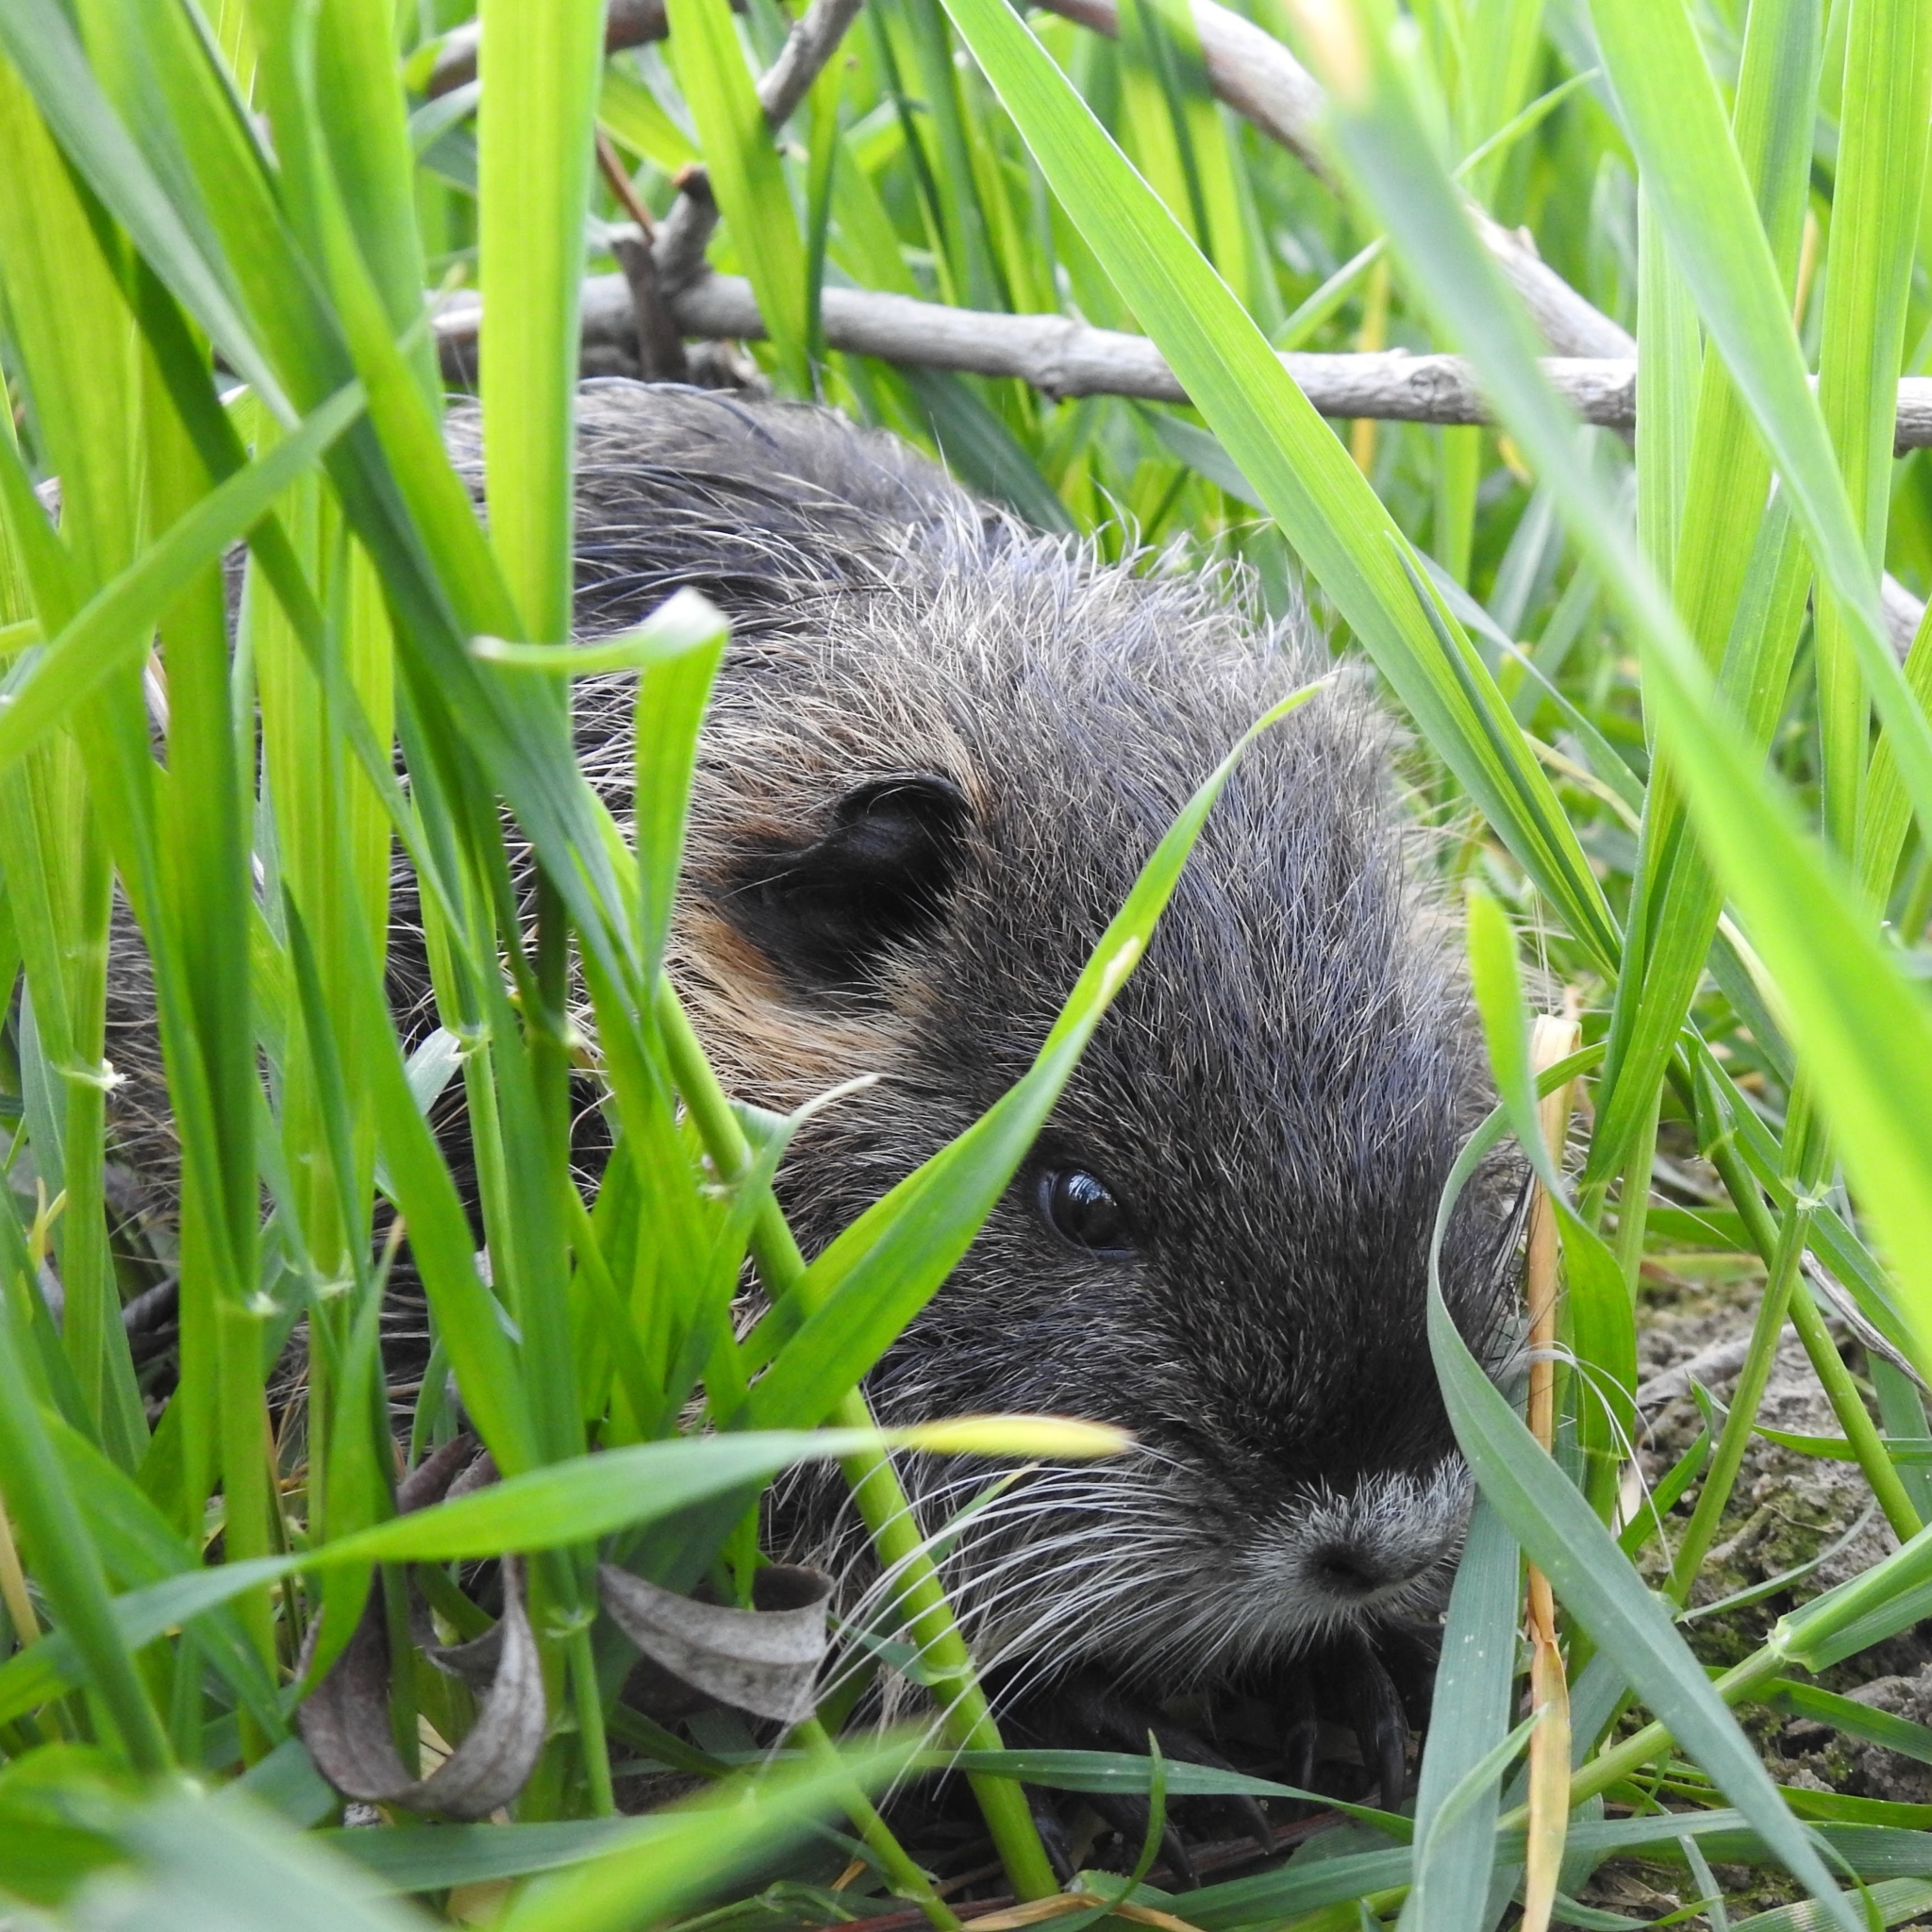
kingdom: Animalia
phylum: Chordata
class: Mammalia
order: Rodentia
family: Myocastoridae
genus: Myocastor
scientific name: Myocastor coypus
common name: Coypu
